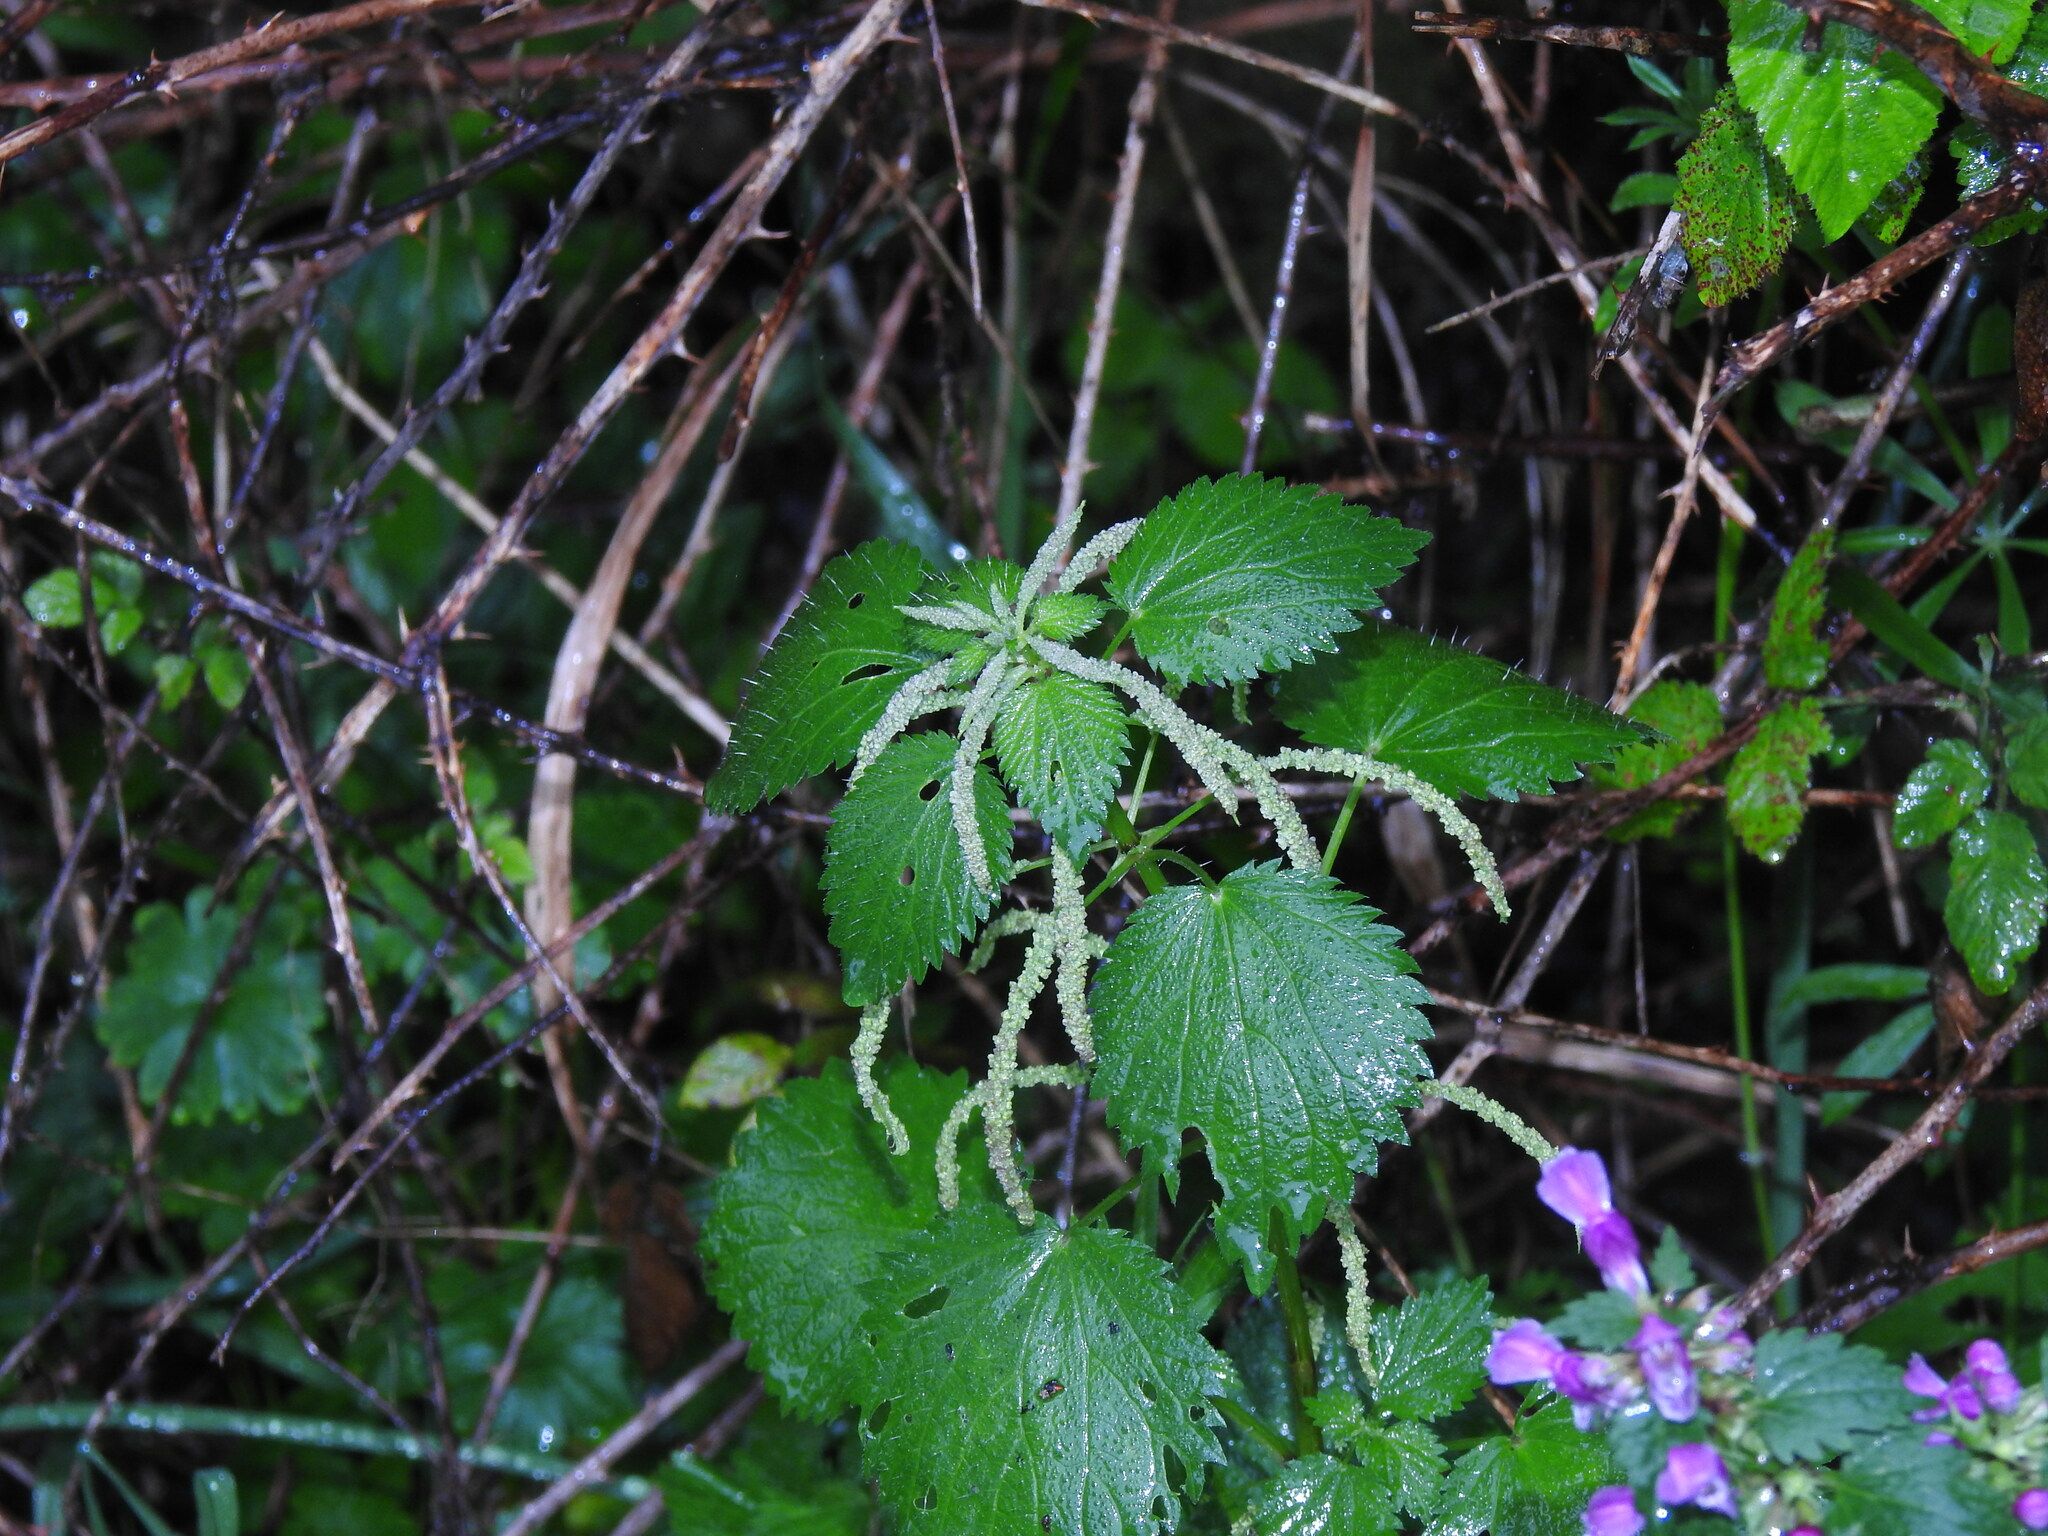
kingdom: Plantae
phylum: Tracheophyta
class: Magnoliopsida
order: Rosales
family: Urticaceae
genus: Urtica
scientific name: Urtica membranacea
